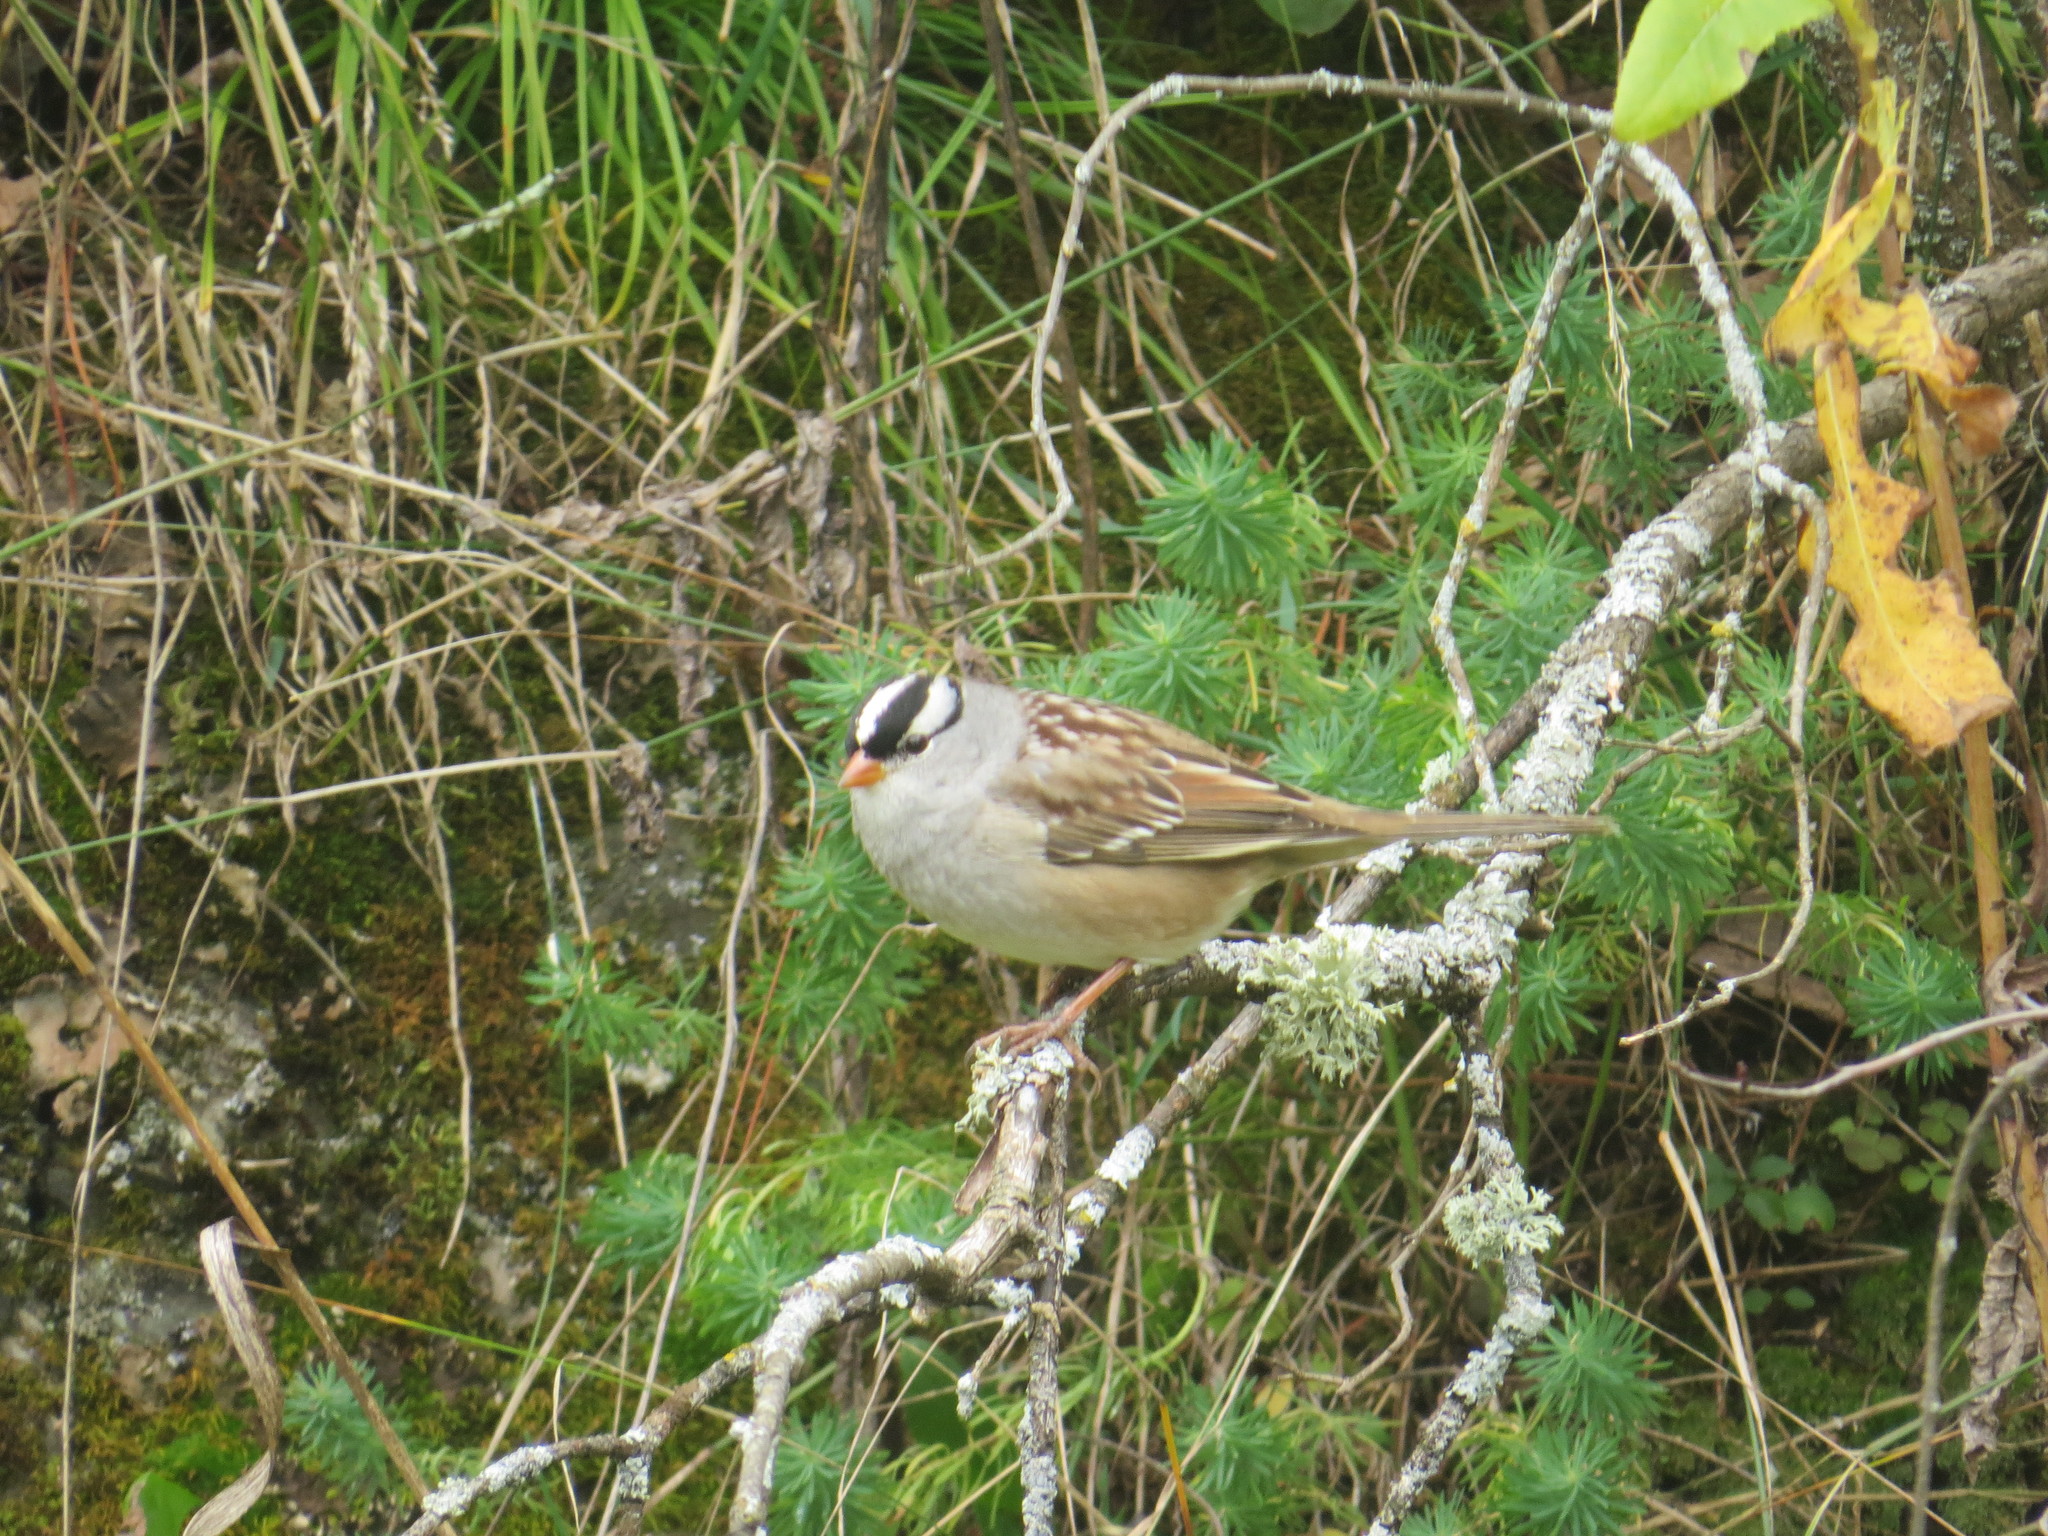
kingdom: Animalia
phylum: Chordata
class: Aves
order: Passeriformes
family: Passerellidae
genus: Zonotrichia
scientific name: Zonotrichia leucophrys
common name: White-crowned sparrow
